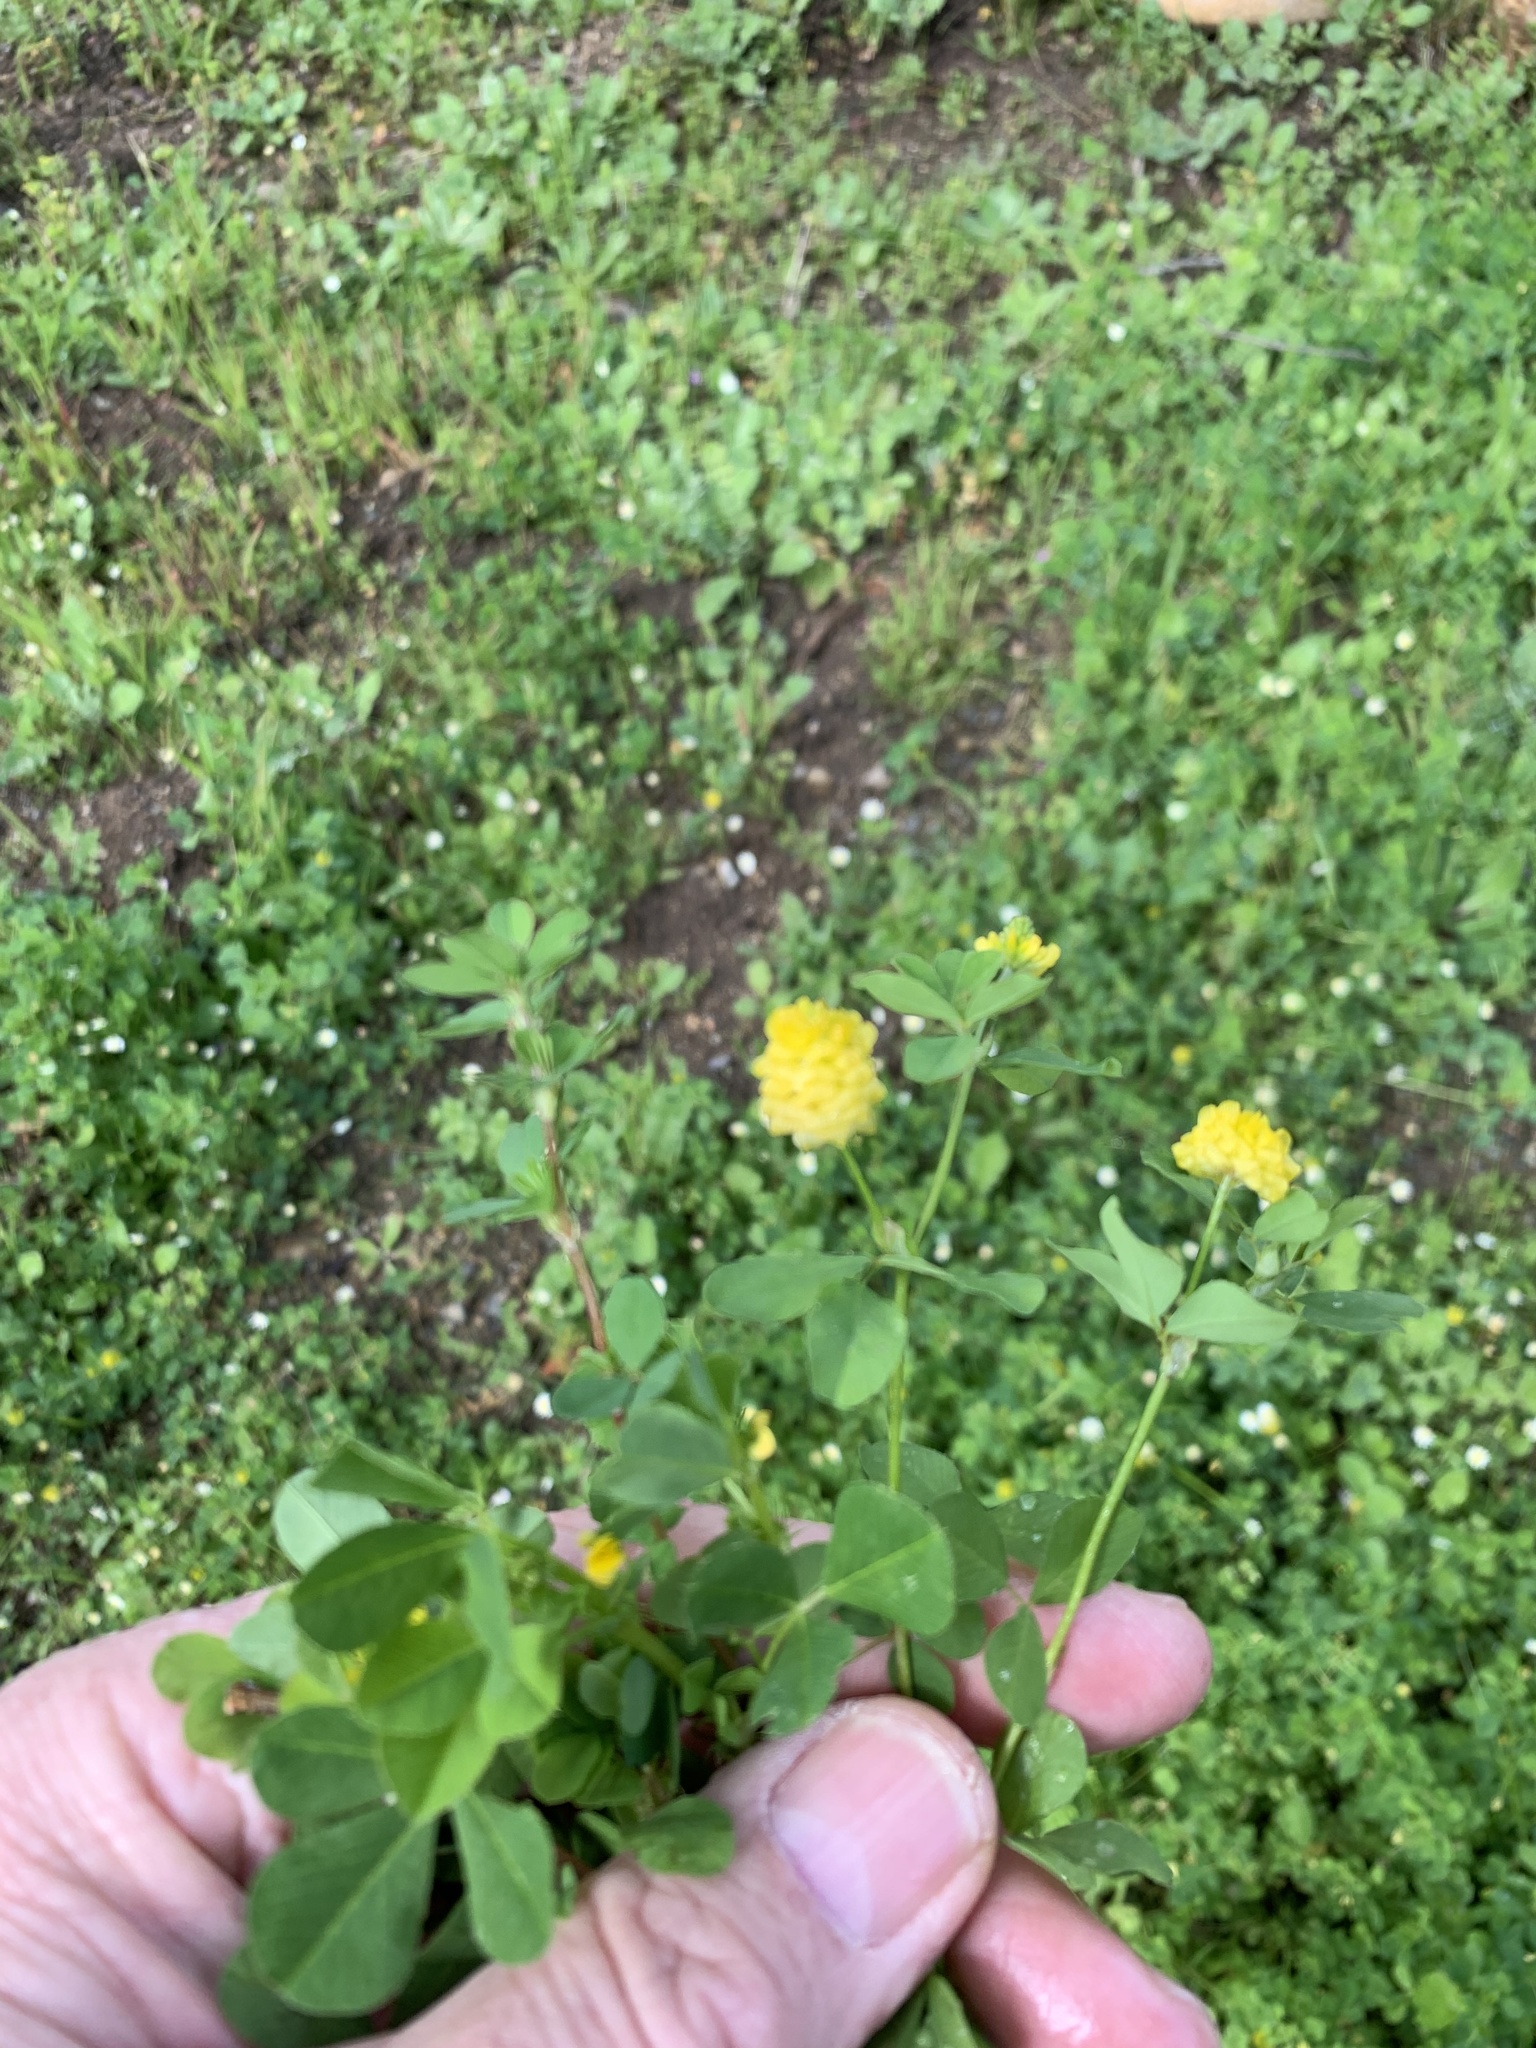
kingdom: Plantae
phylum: Tracheophyta
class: Magnoliopsida
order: Fabales
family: Fabaceae
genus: Trifolium
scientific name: Trifolium campestre
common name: Field clover
